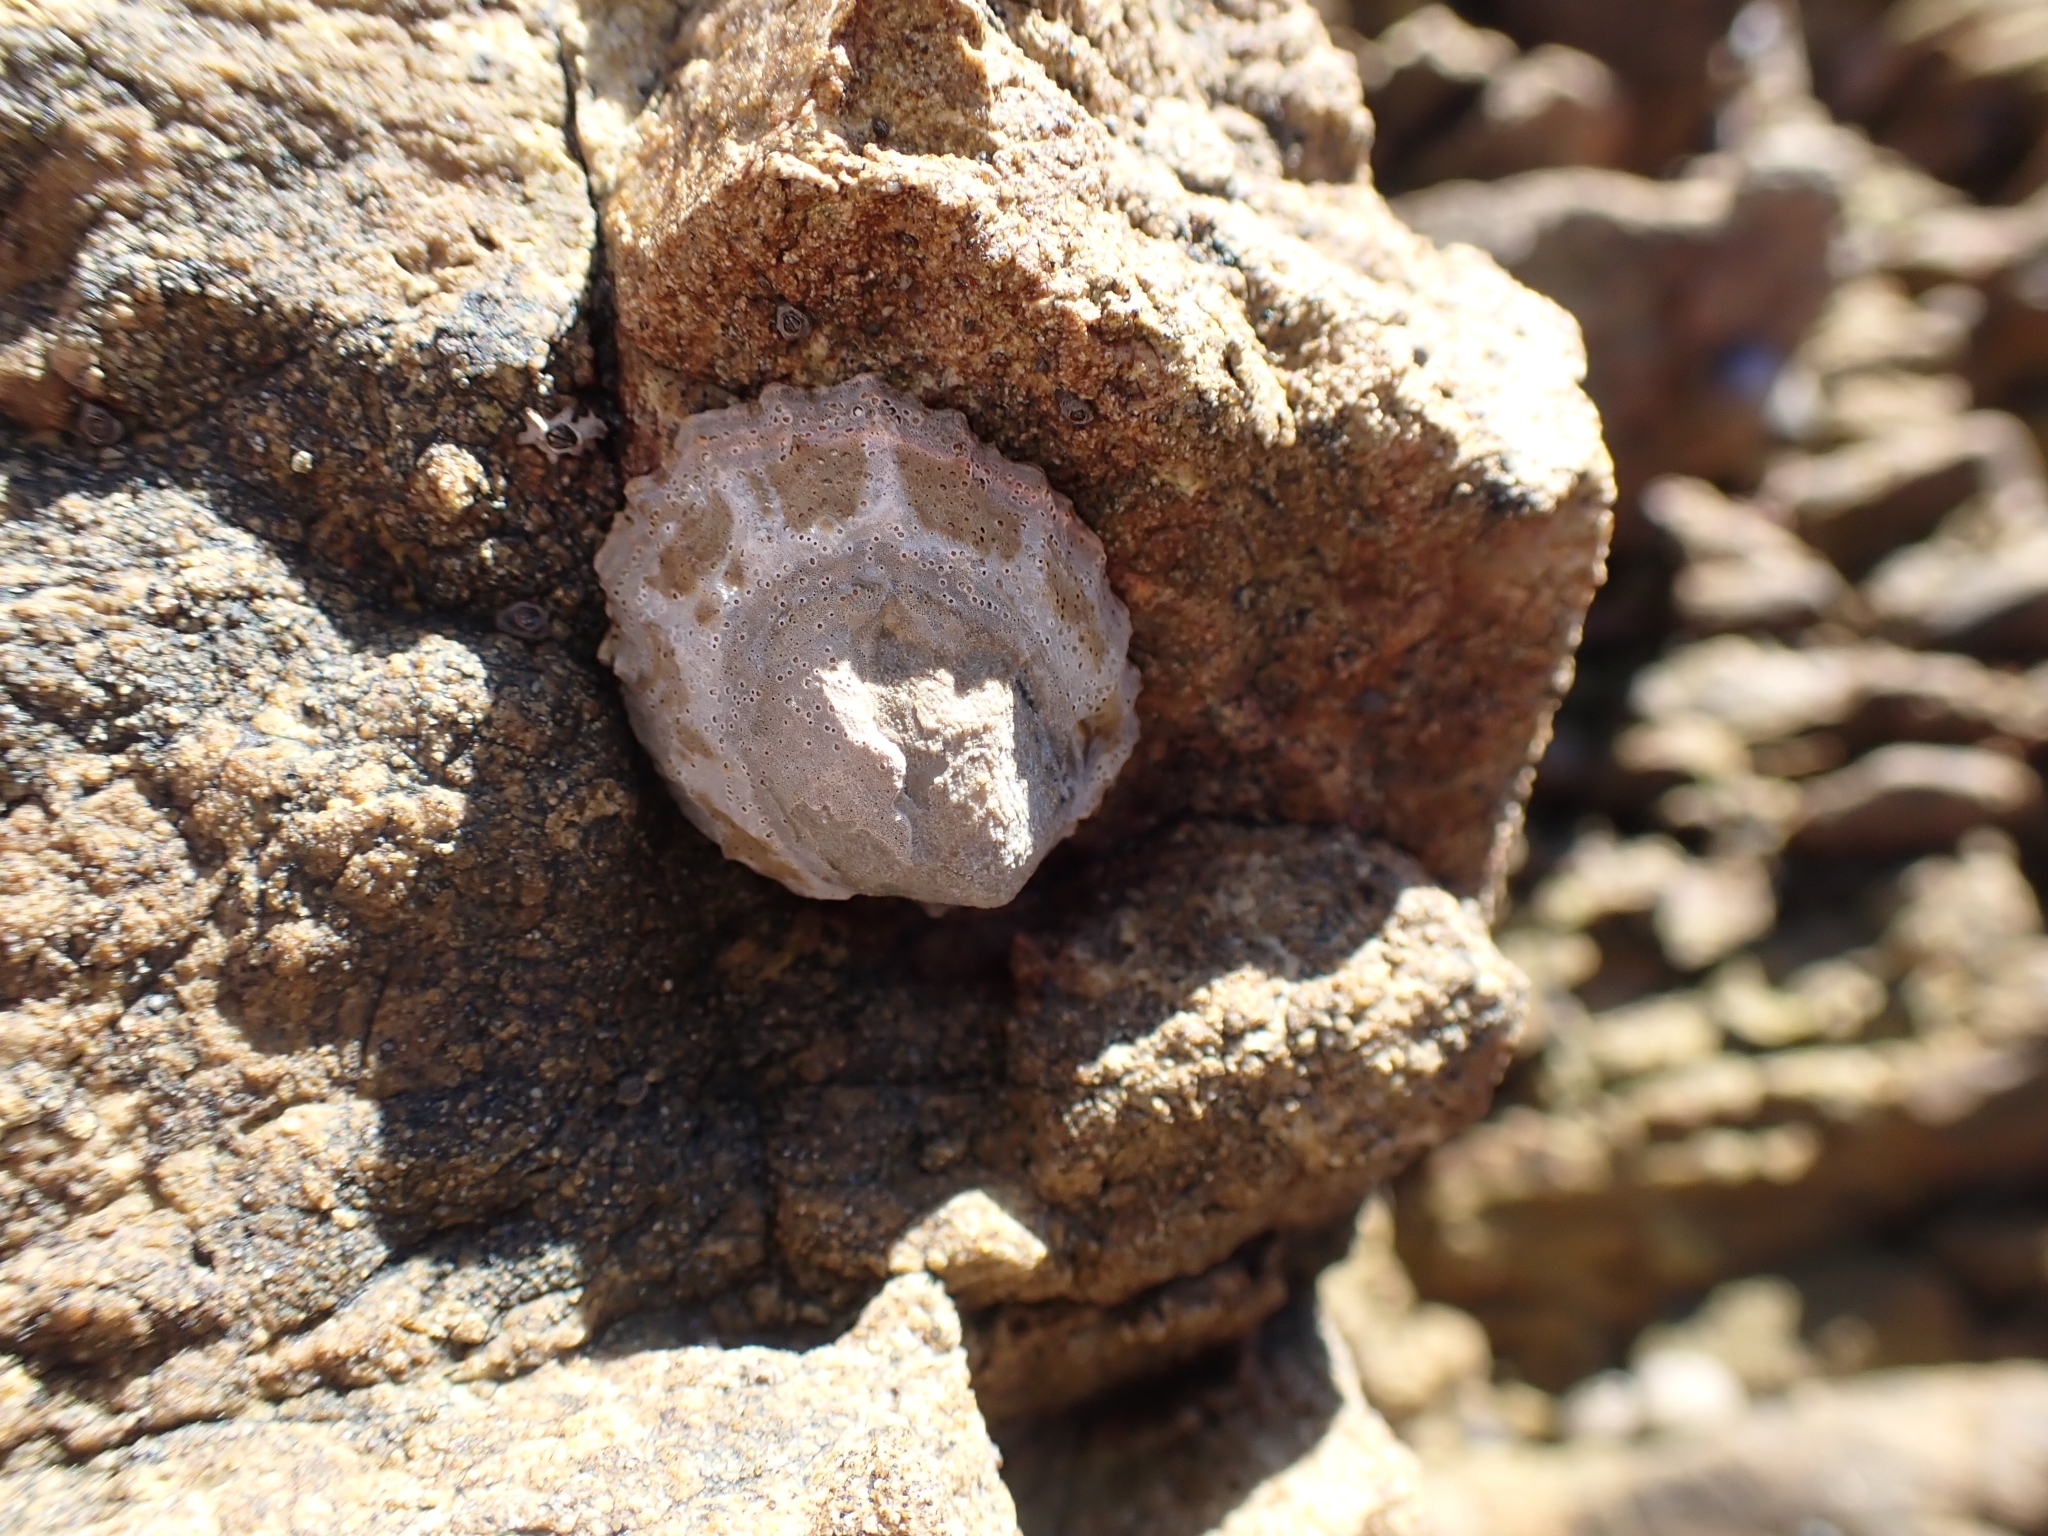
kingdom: Animalia
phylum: Mollusca
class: Gastropoda
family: Nacellidae
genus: Cellana
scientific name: Cellana ornata
